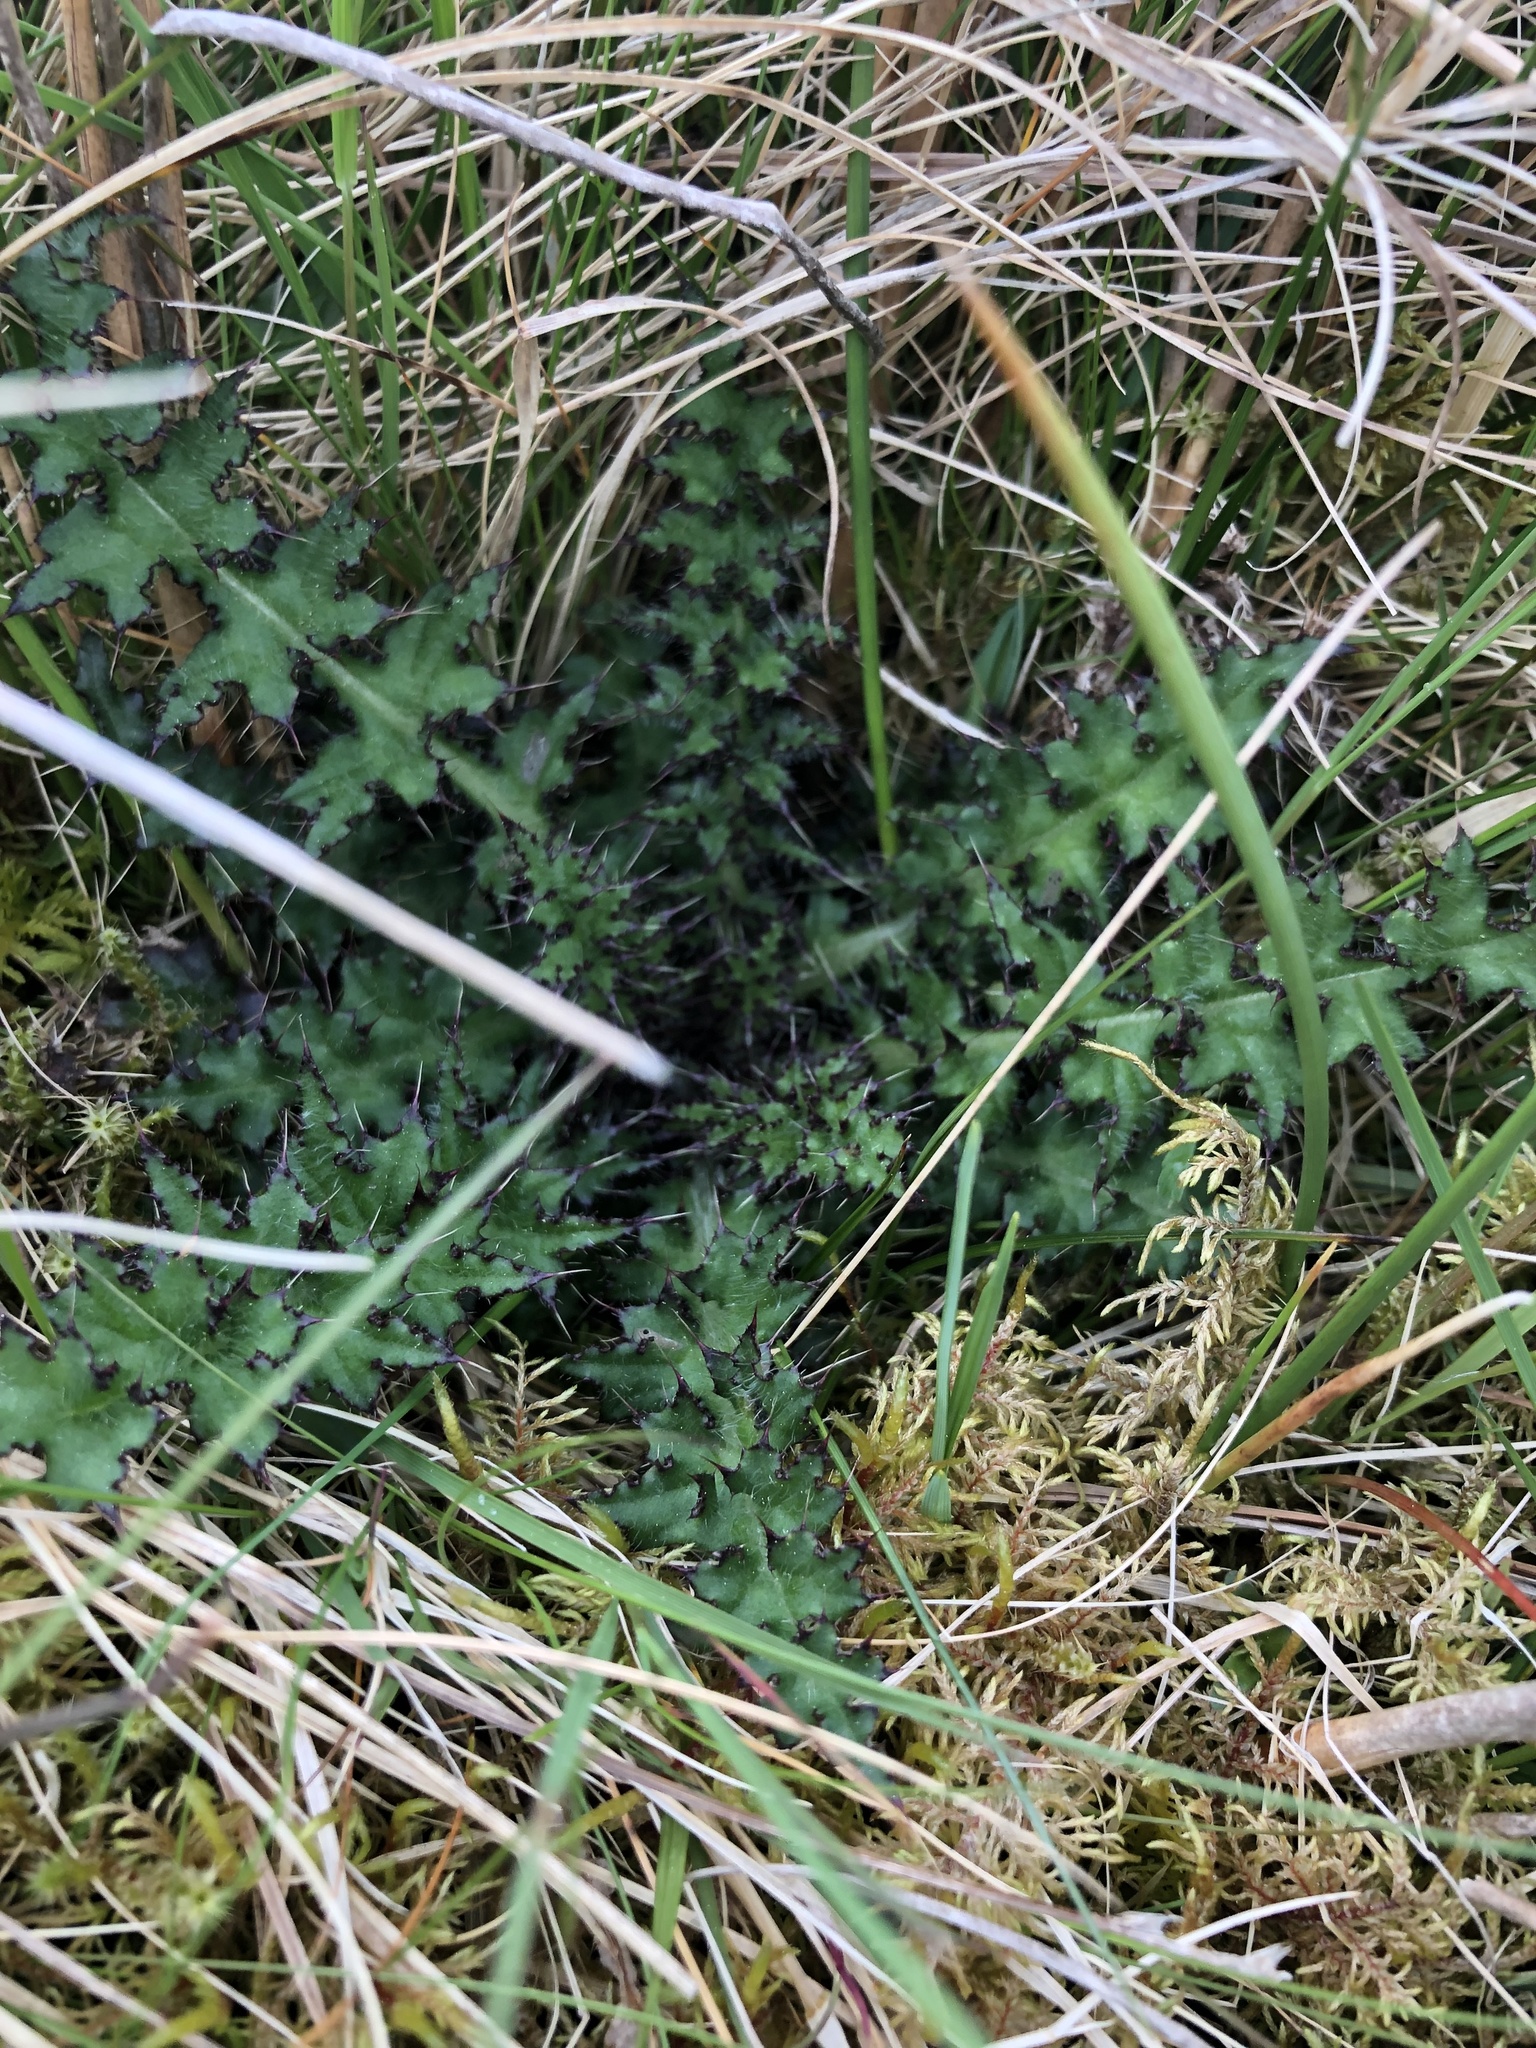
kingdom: Plantae
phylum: Tracheophyta
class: Magnoliopsida
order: Asterales
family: Asteraceae
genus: Cirsium
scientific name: Cirsium palustre
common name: Marsh thistle
